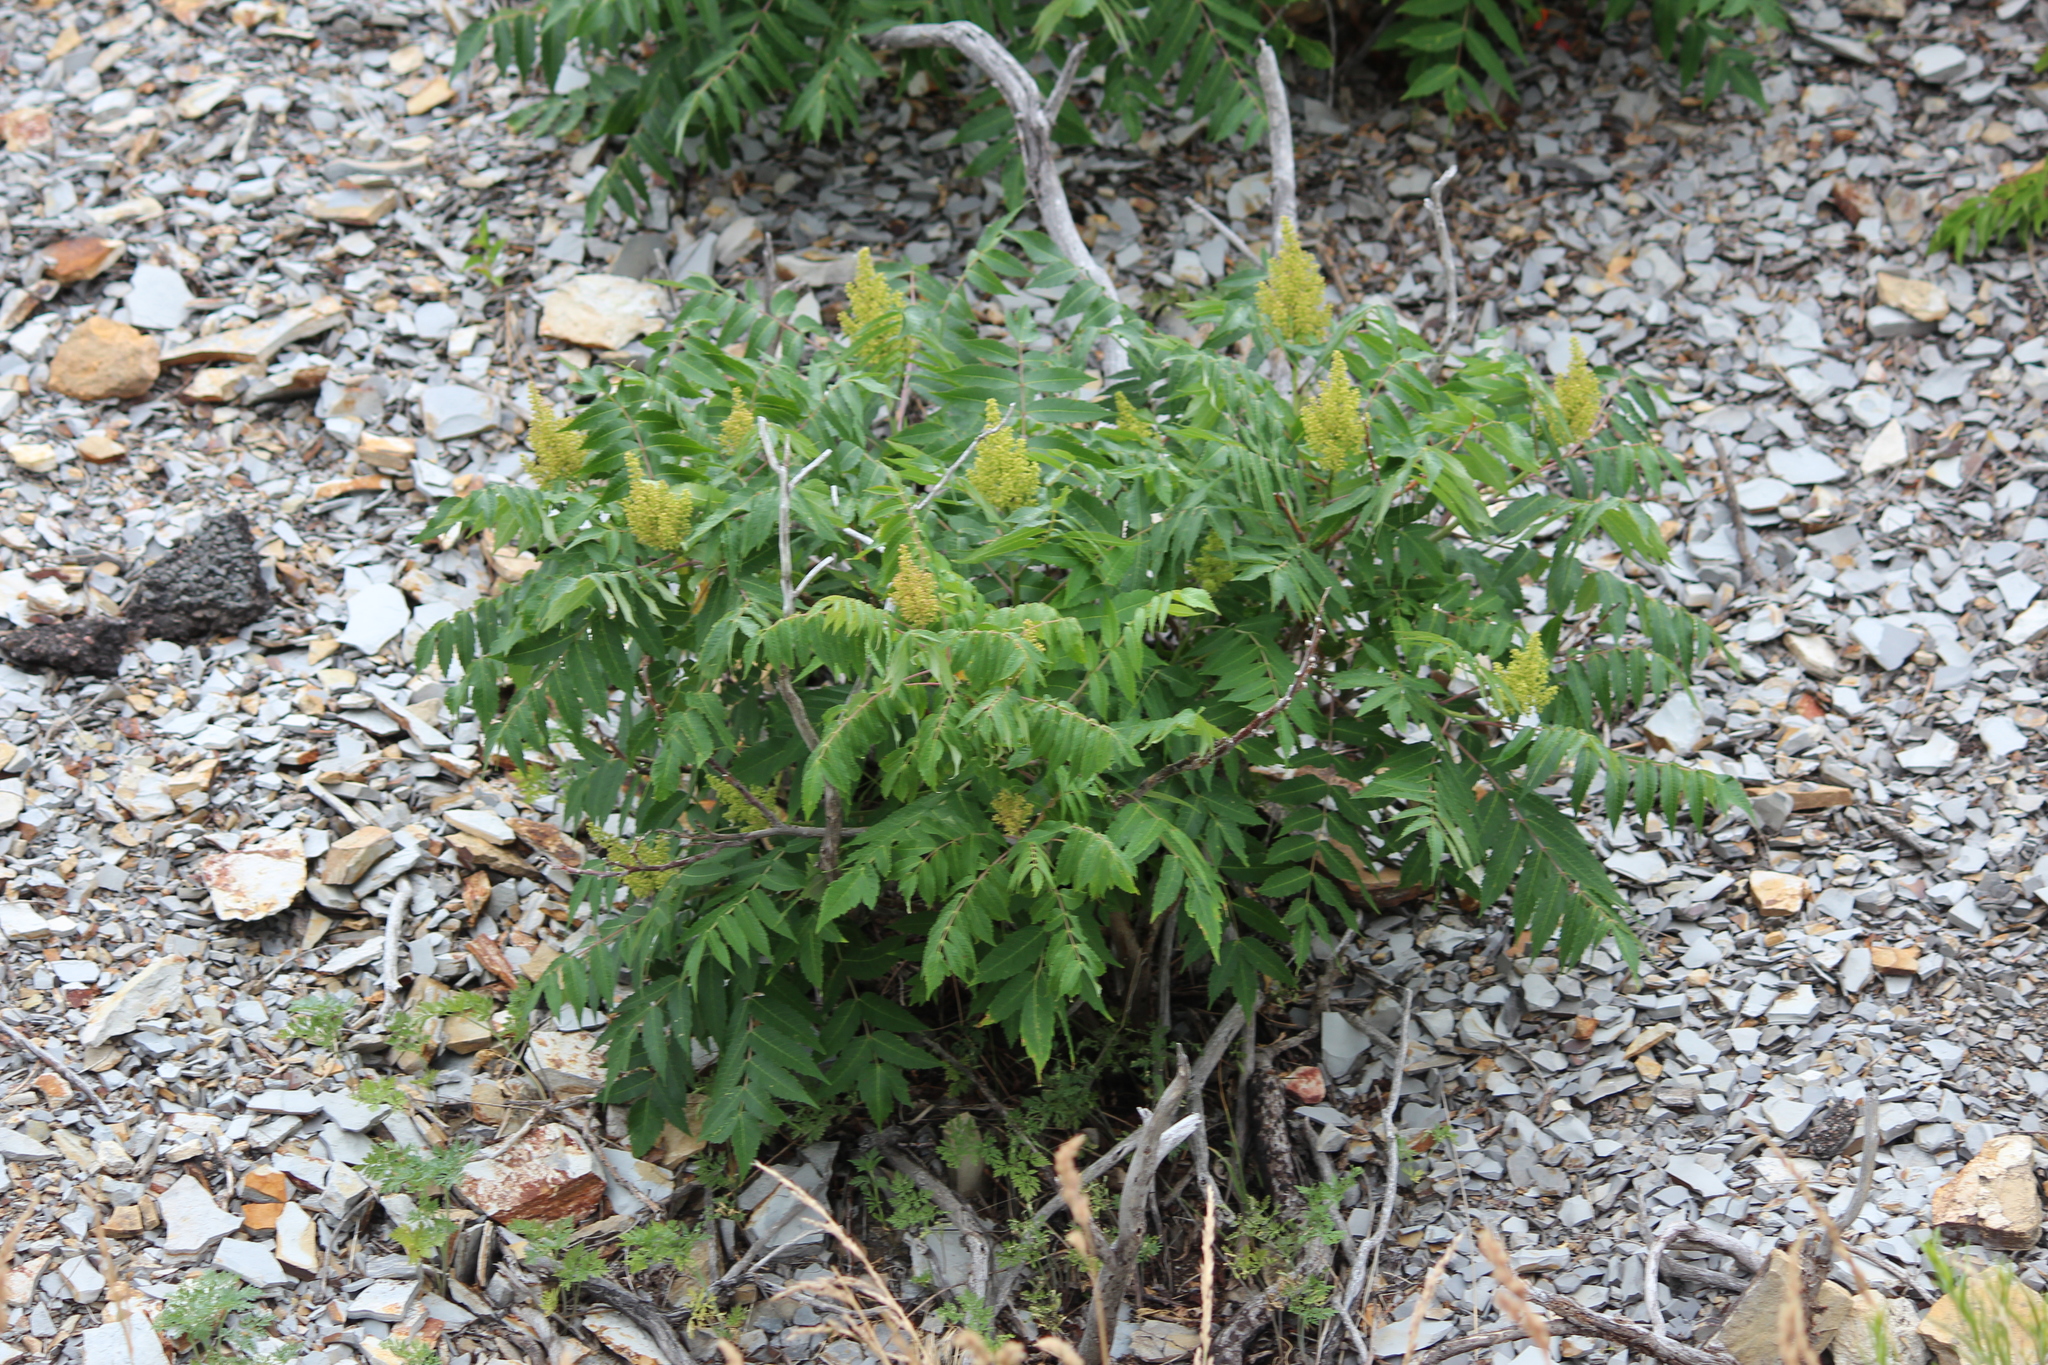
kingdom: Plantae
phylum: Tracheophyta
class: Magnoliopsida
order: Sapindales
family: Anacardiaceae
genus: Rhus
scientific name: Rhus glabra
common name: Scarlet sumac
